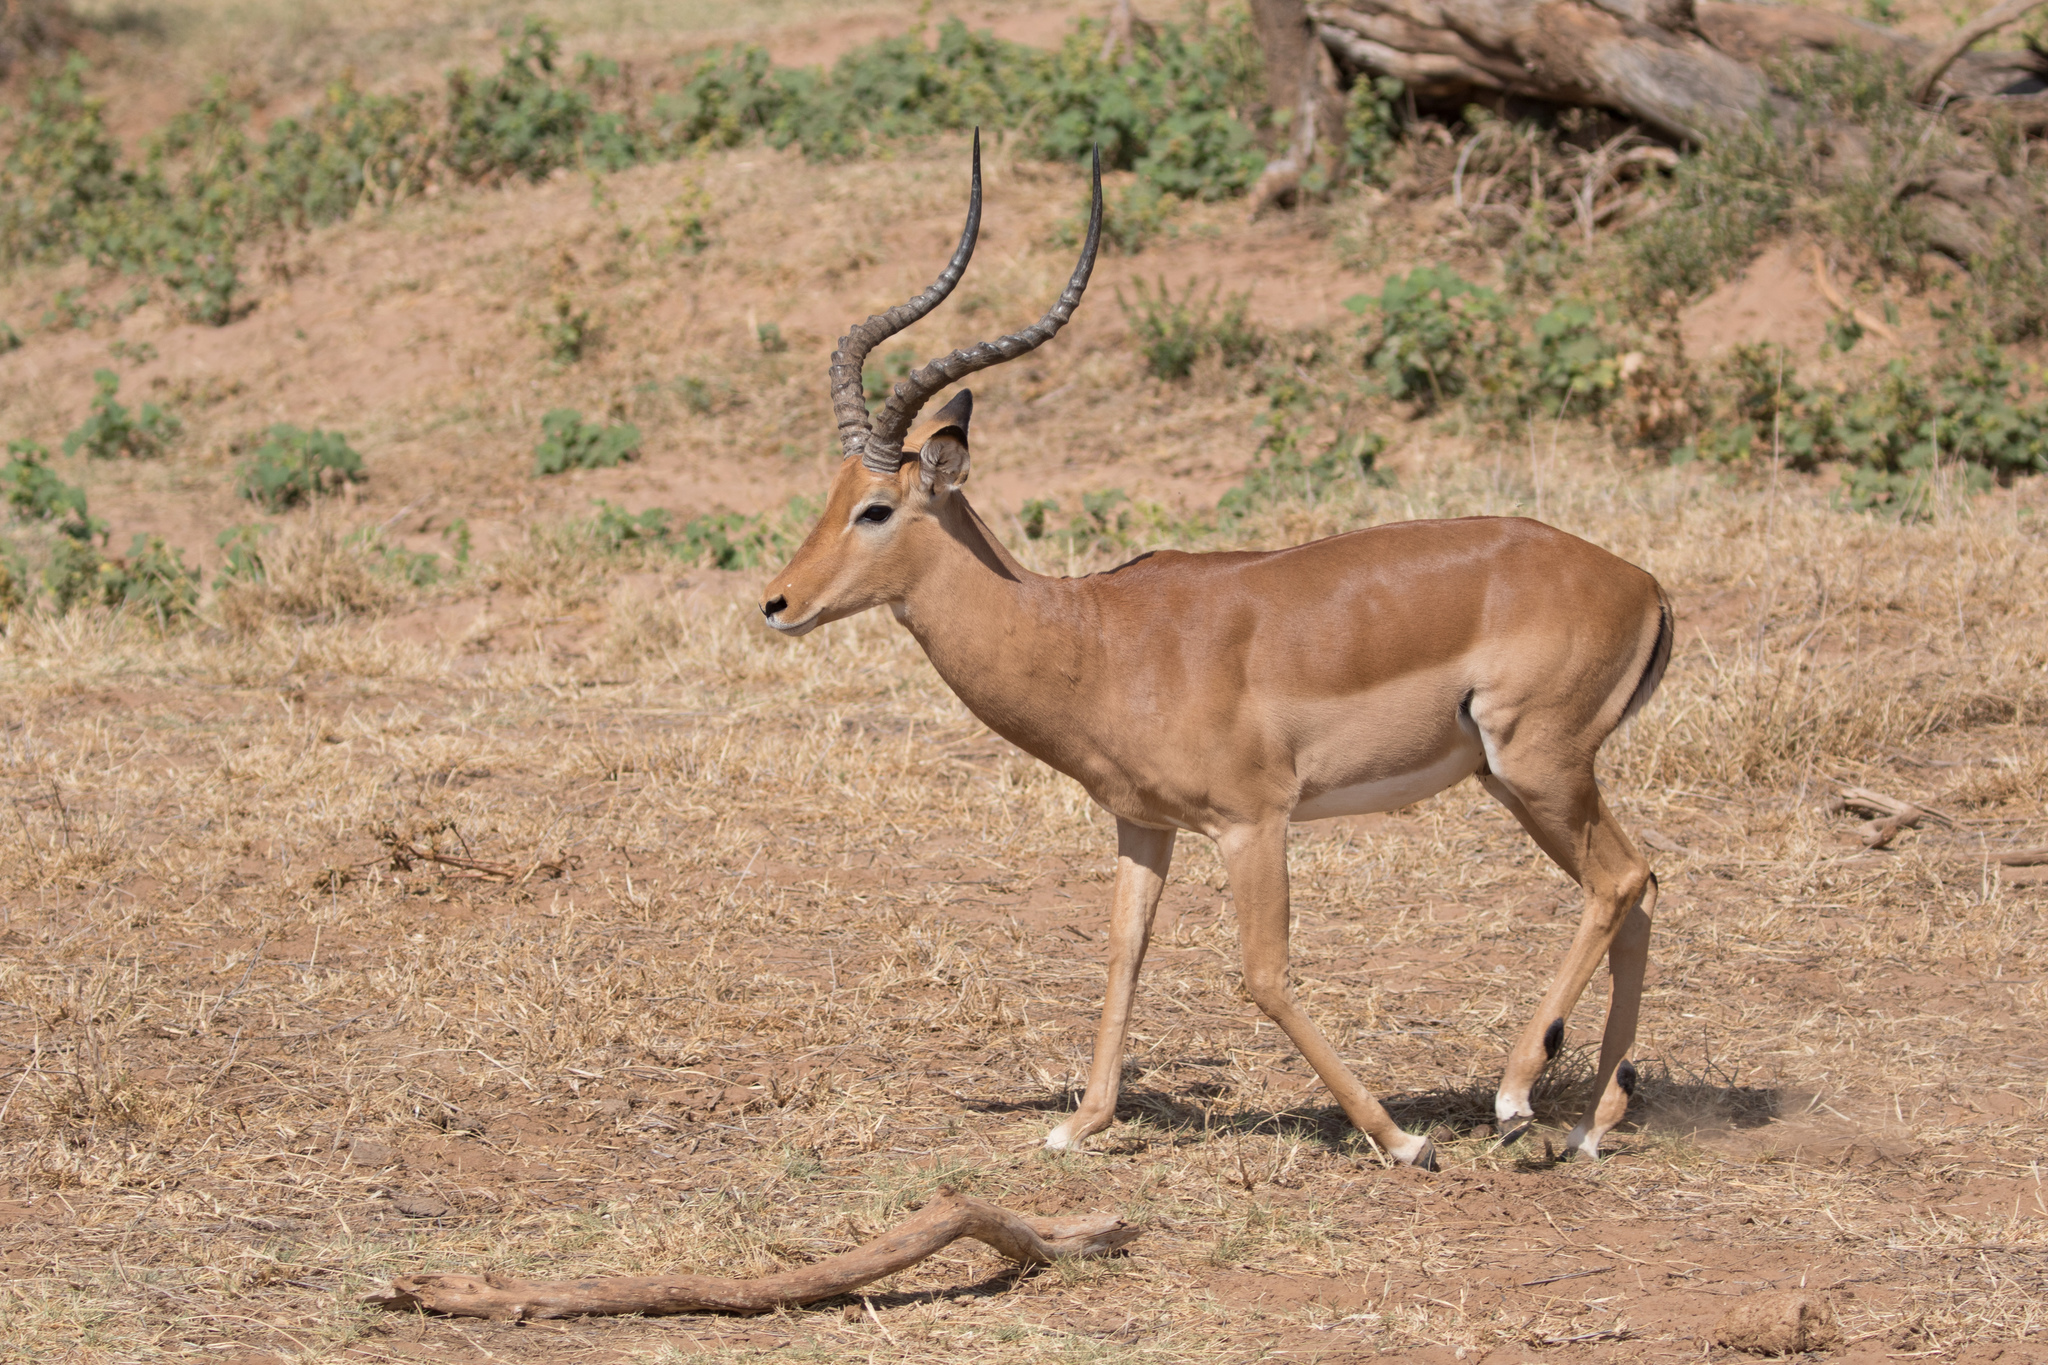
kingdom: Animalia
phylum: Chordata
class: Mammalia
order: Artiodactyla
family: Bovidae
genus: Aepyceros
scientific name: Aepyceros melampus
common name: Impala
